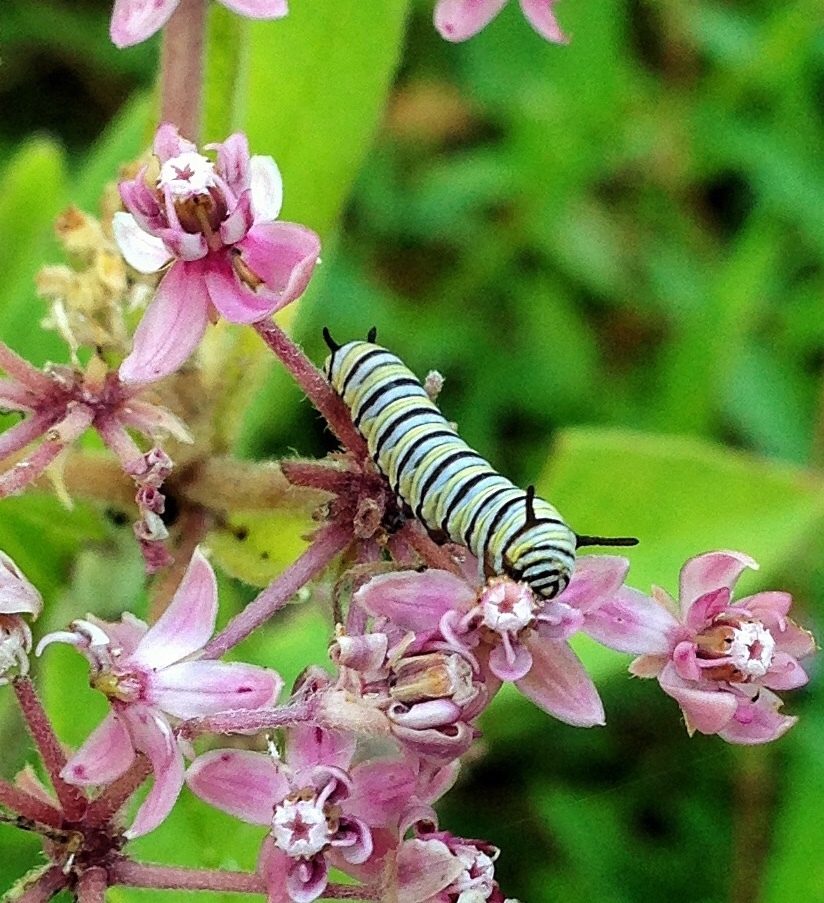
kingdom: Animalia
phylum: Arthropoda
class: Insecta
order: Lepidoptera
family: Nymphalidae
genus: Danaus
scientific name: Danaus plexippus
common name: Monarch
